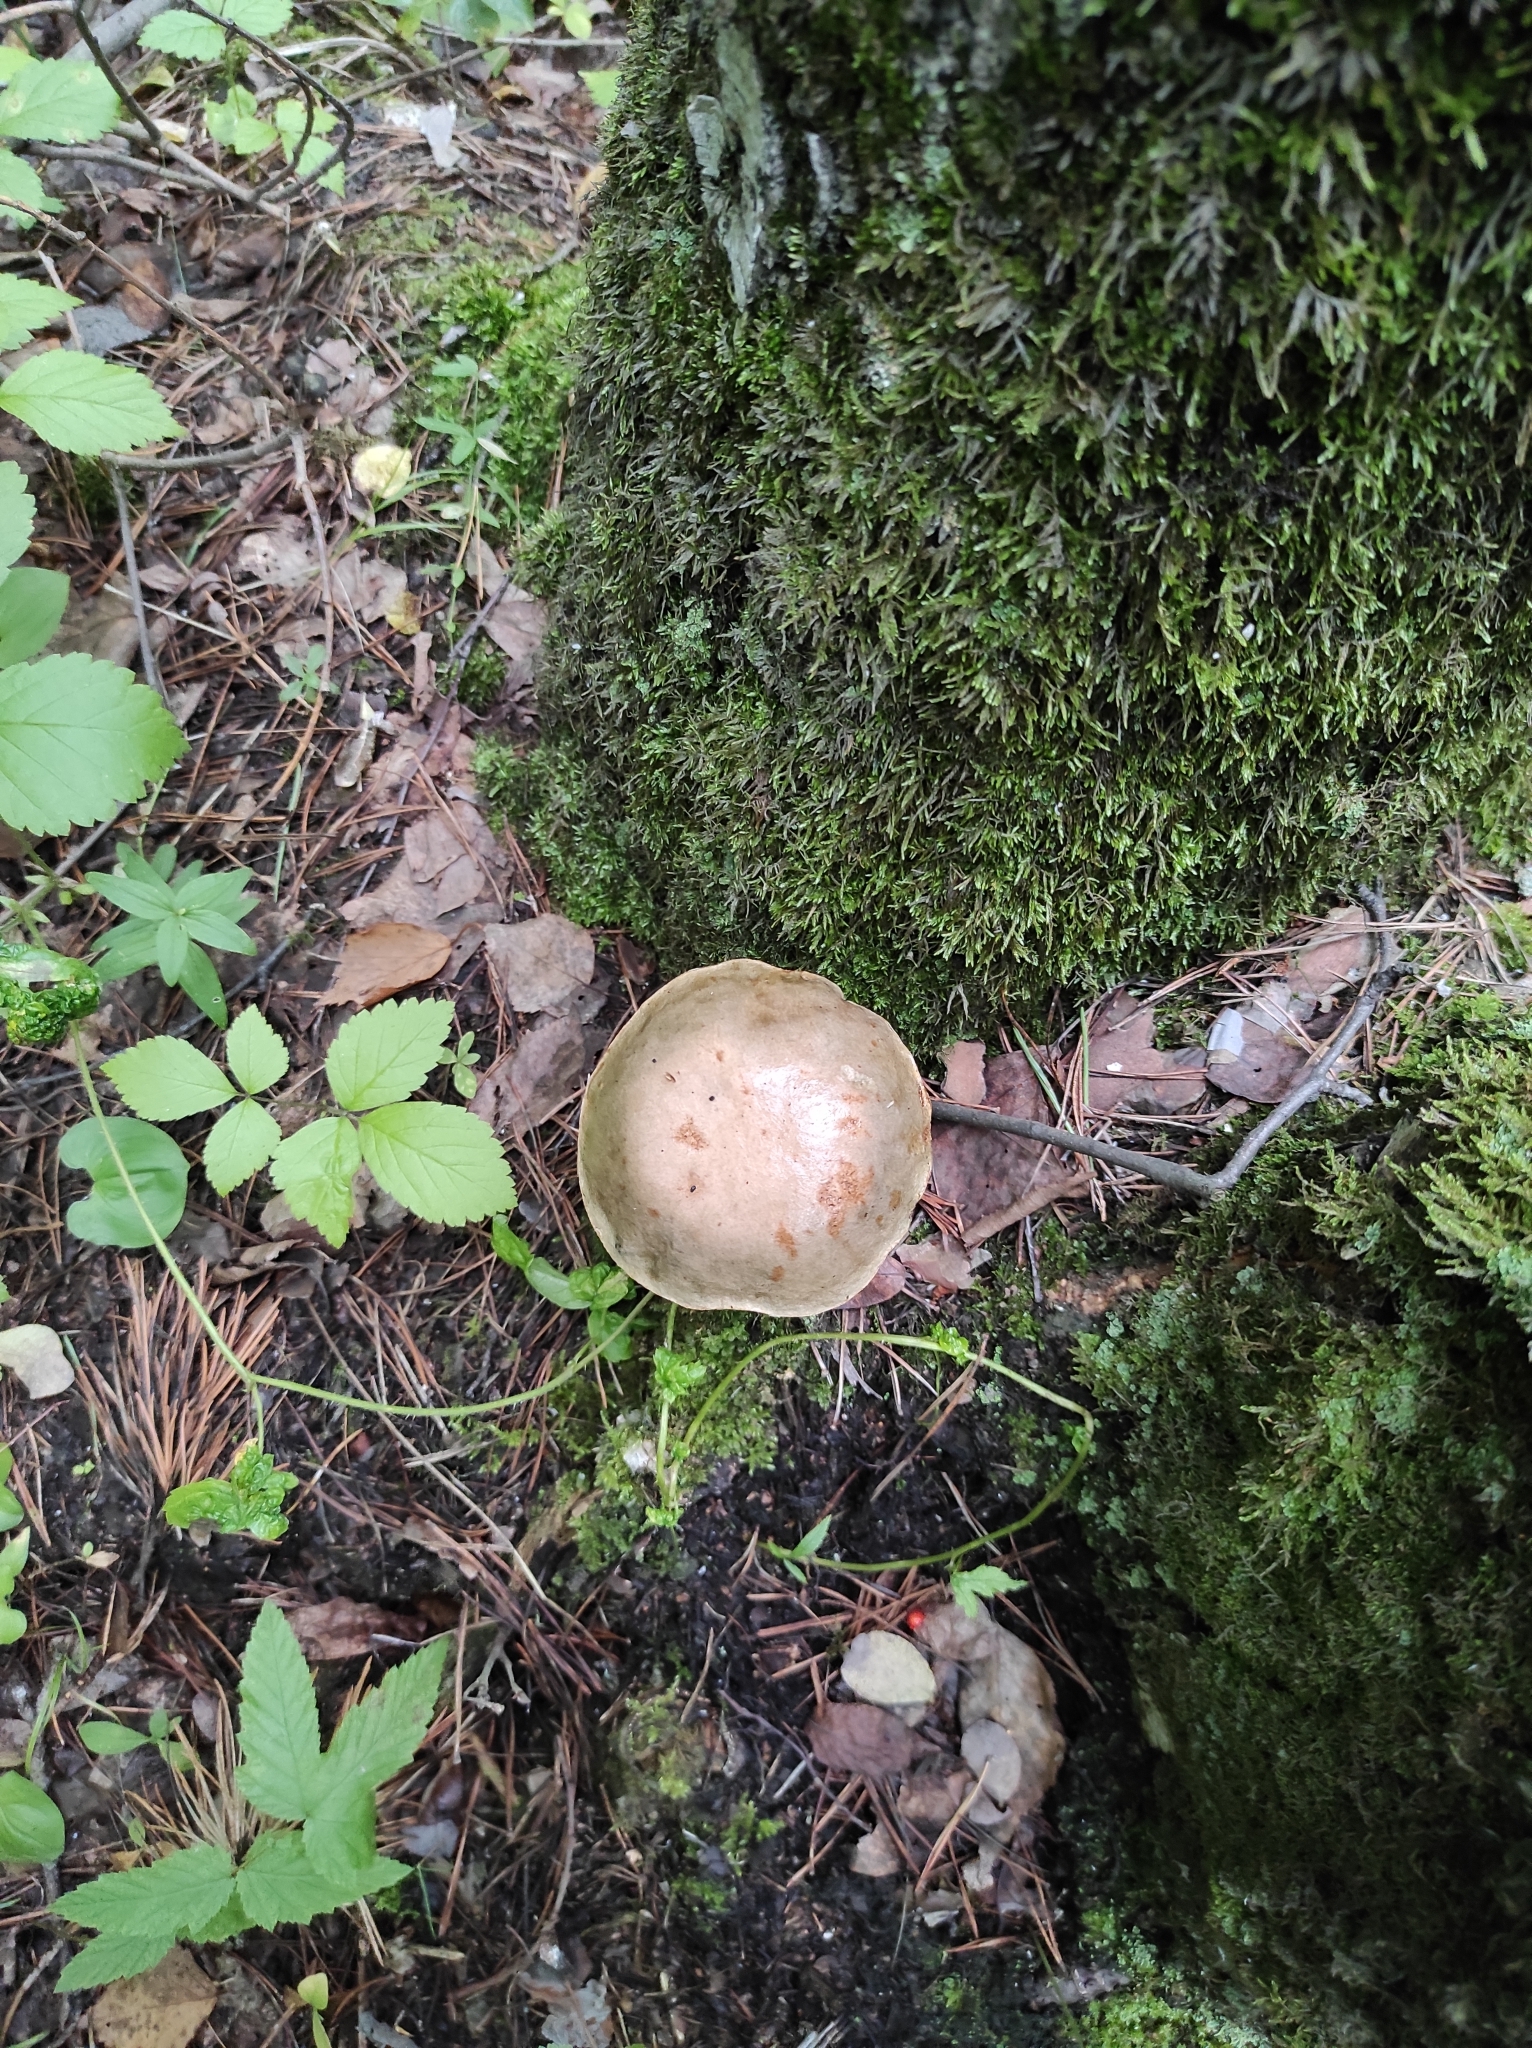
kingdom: Fungi
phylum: Basidiomycota
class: Agaricomycetes
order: Boletales
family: Boletaceae
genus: Leccinum
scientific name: Leccinum scabrum
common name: Blushing bolete
